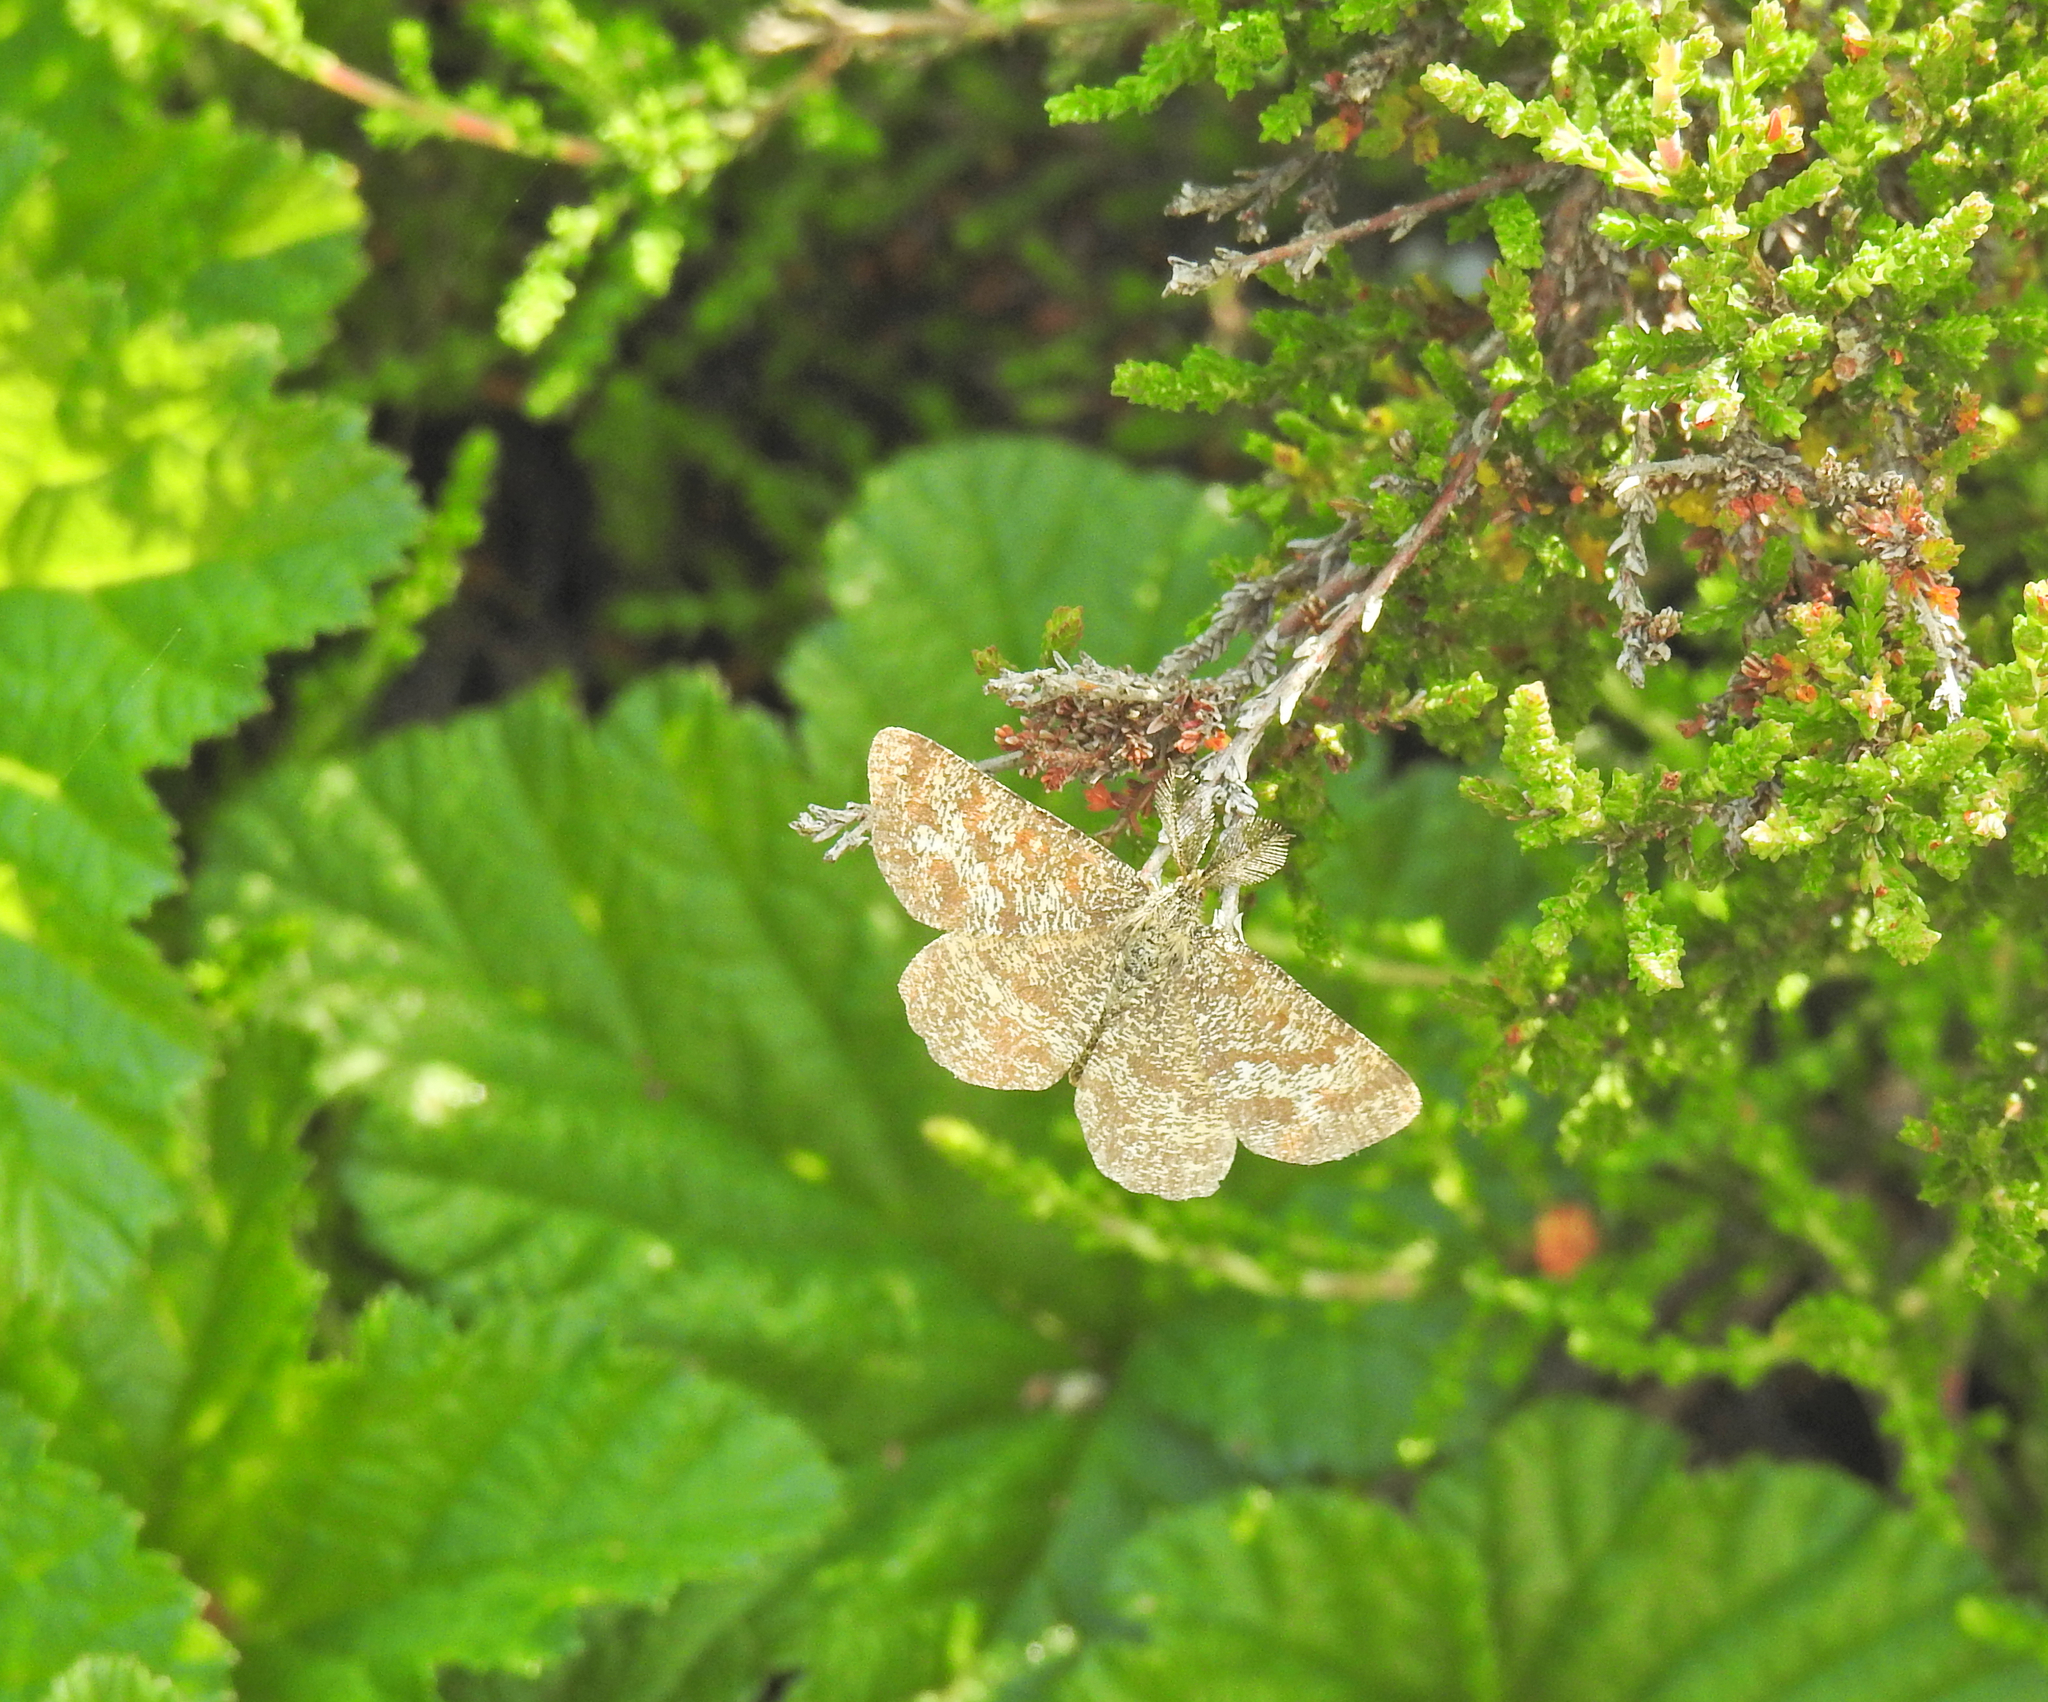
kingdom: Animalia
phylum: Arthropoda
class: Insecta
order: Lepidoptera
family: Geometridae
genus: Ematurga
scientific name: Ematurga atomaria
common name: Common heath
